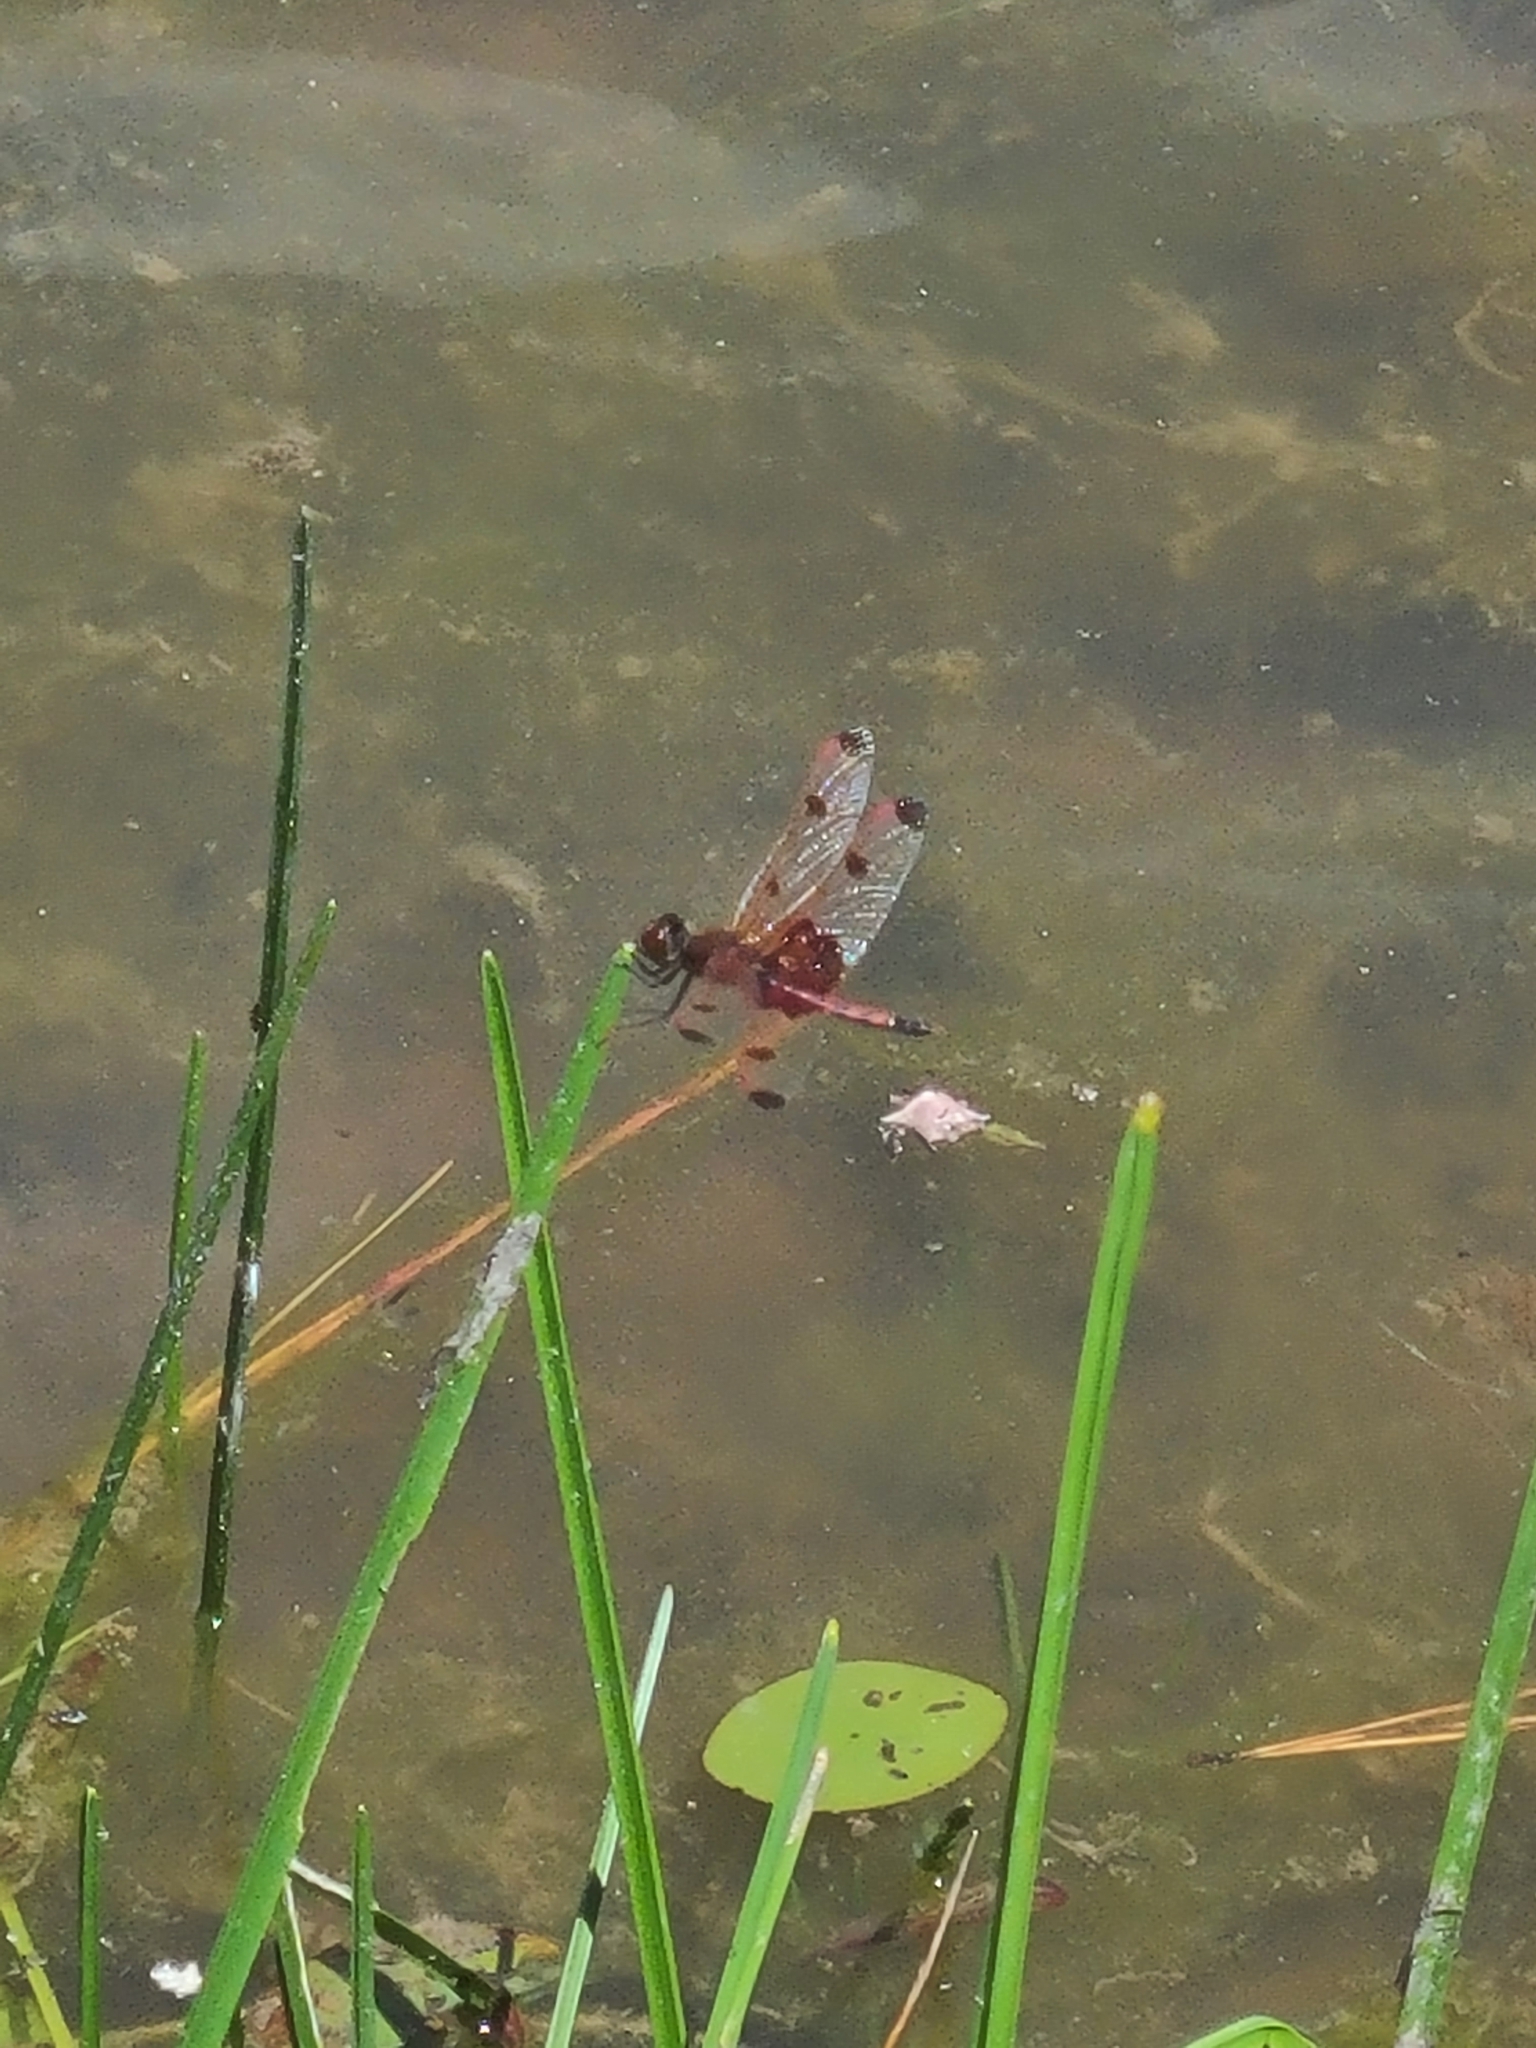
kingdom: Animalia
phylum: Arthropoda
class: Insecta
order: Odonata
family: Libellulidae
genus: Celithemis
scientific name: Celithemis elisa
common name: Calico pennant
